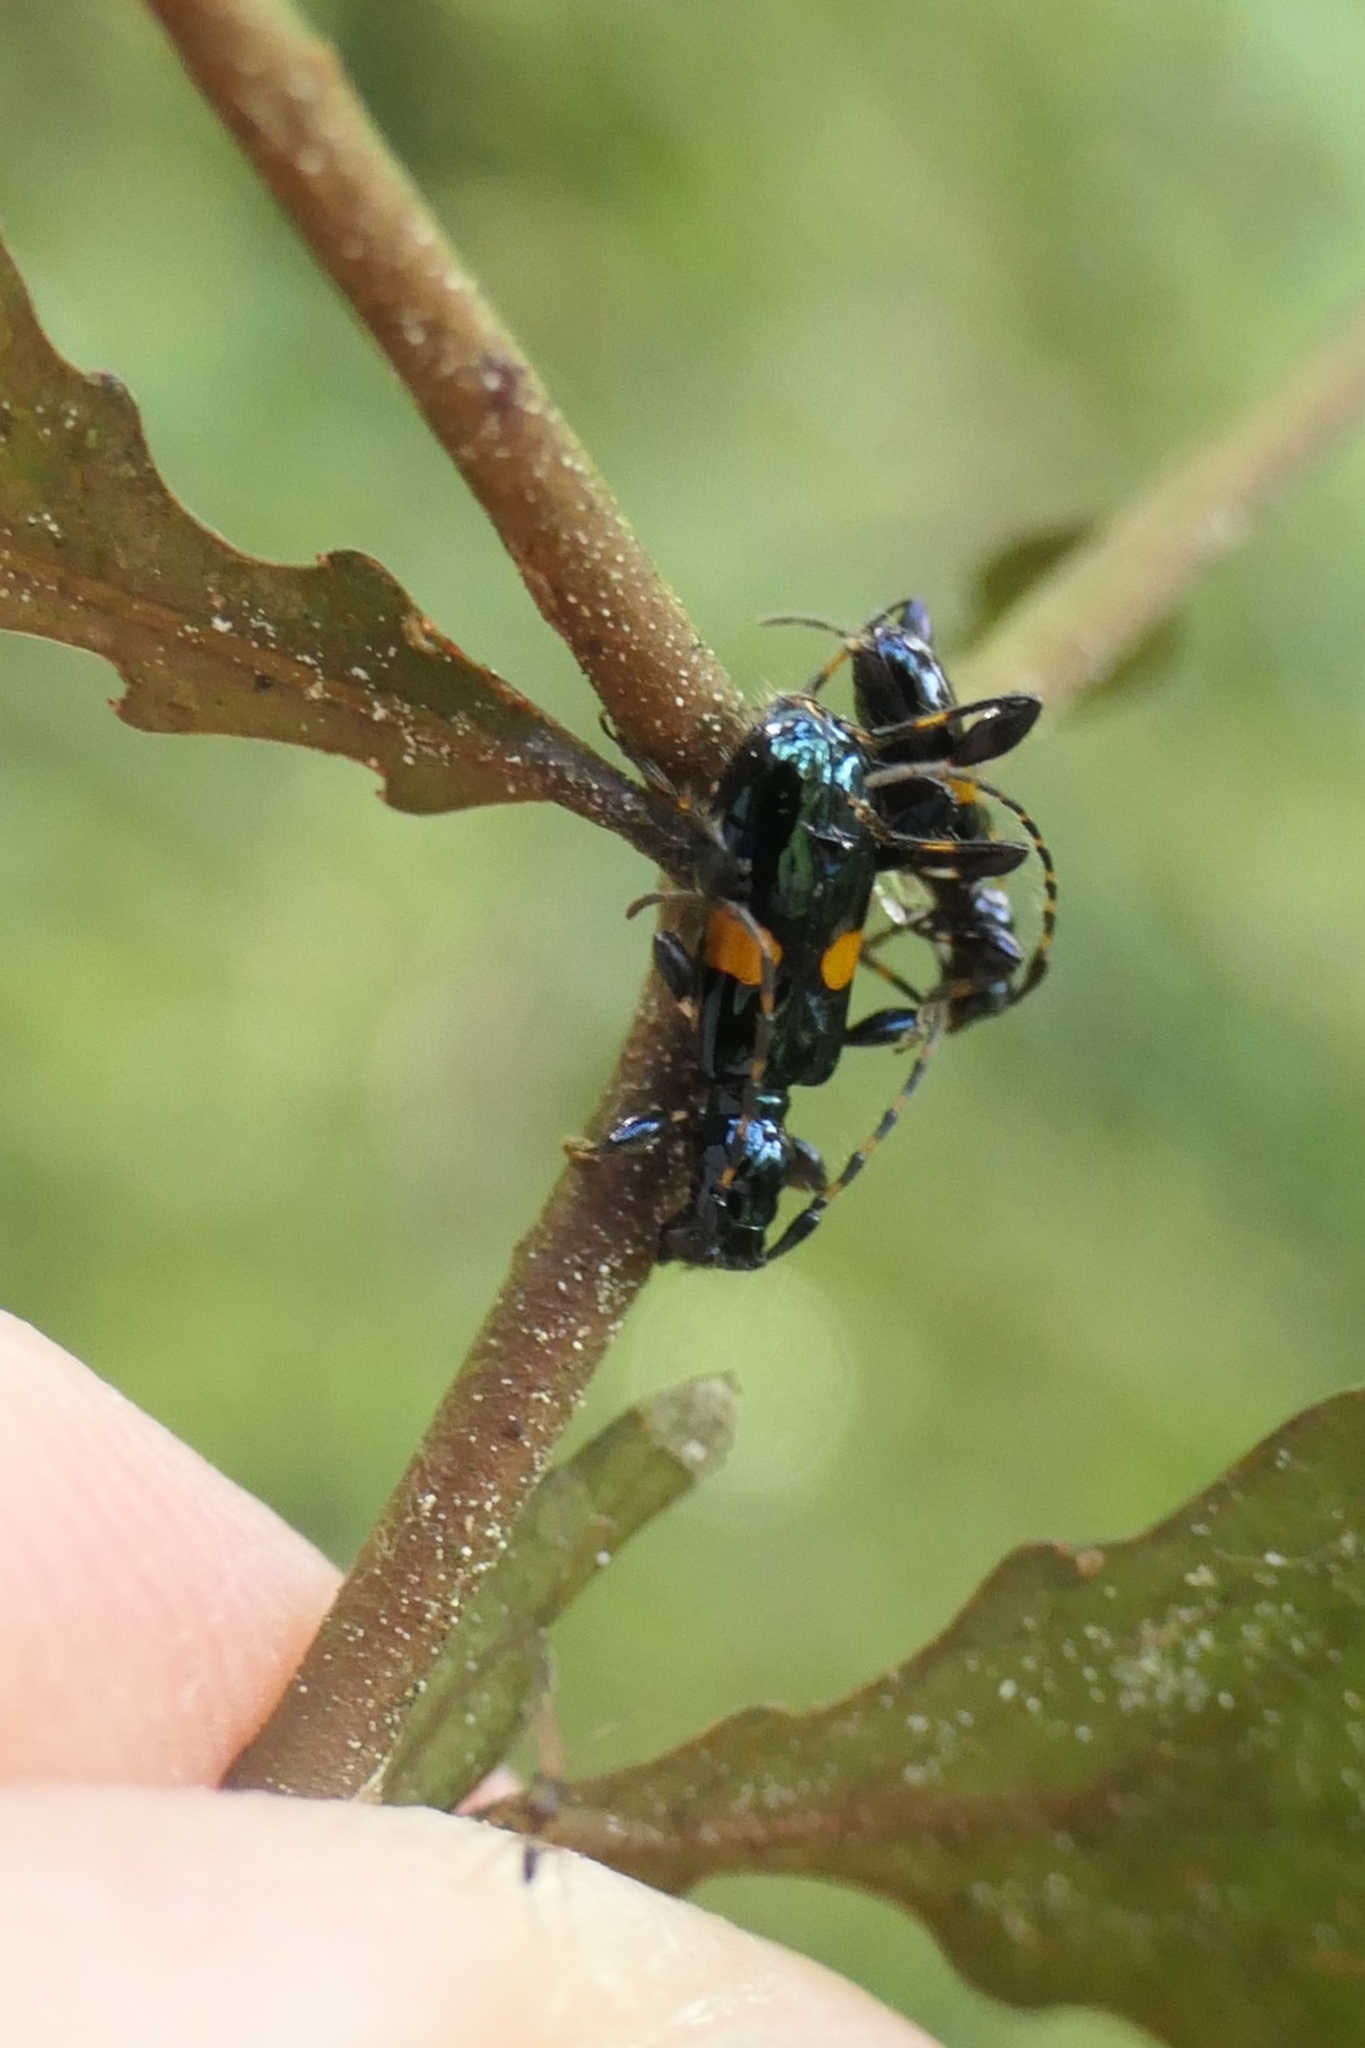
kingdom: Animalia
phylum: Arthropoda
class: Insecta
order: Coleoptera
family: Cerambycidae
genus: Zorion
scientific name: Zorion guttigerum
